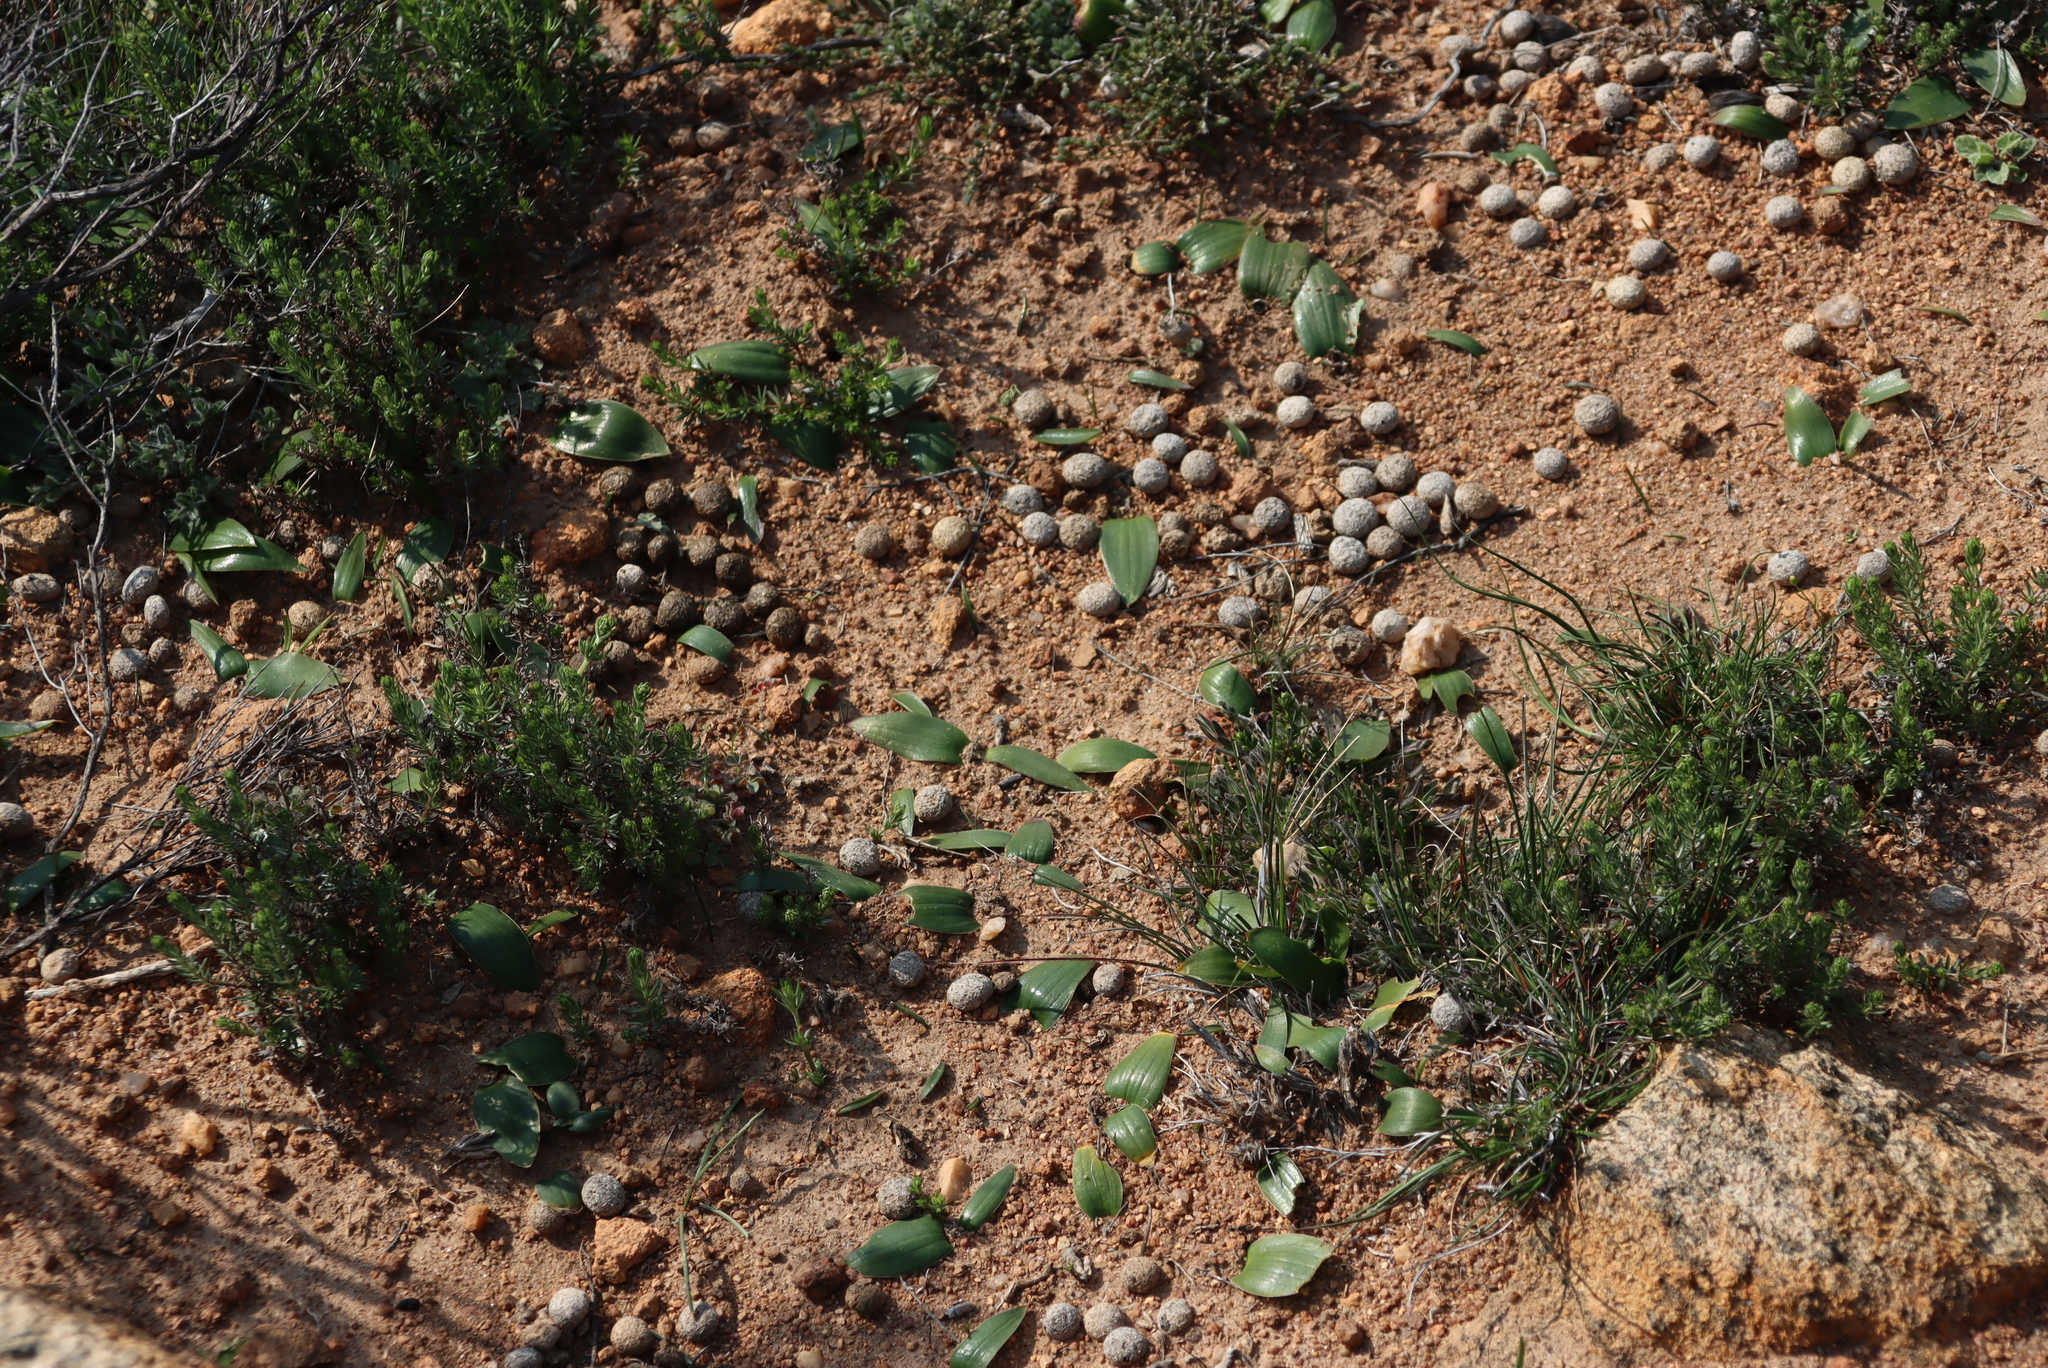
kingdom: Plantae
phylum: Tracheophyta
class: Liliopsida
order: Asparagales
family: Asparagaceae
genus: Lachenalia
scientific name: Lachenalia pygmaea
